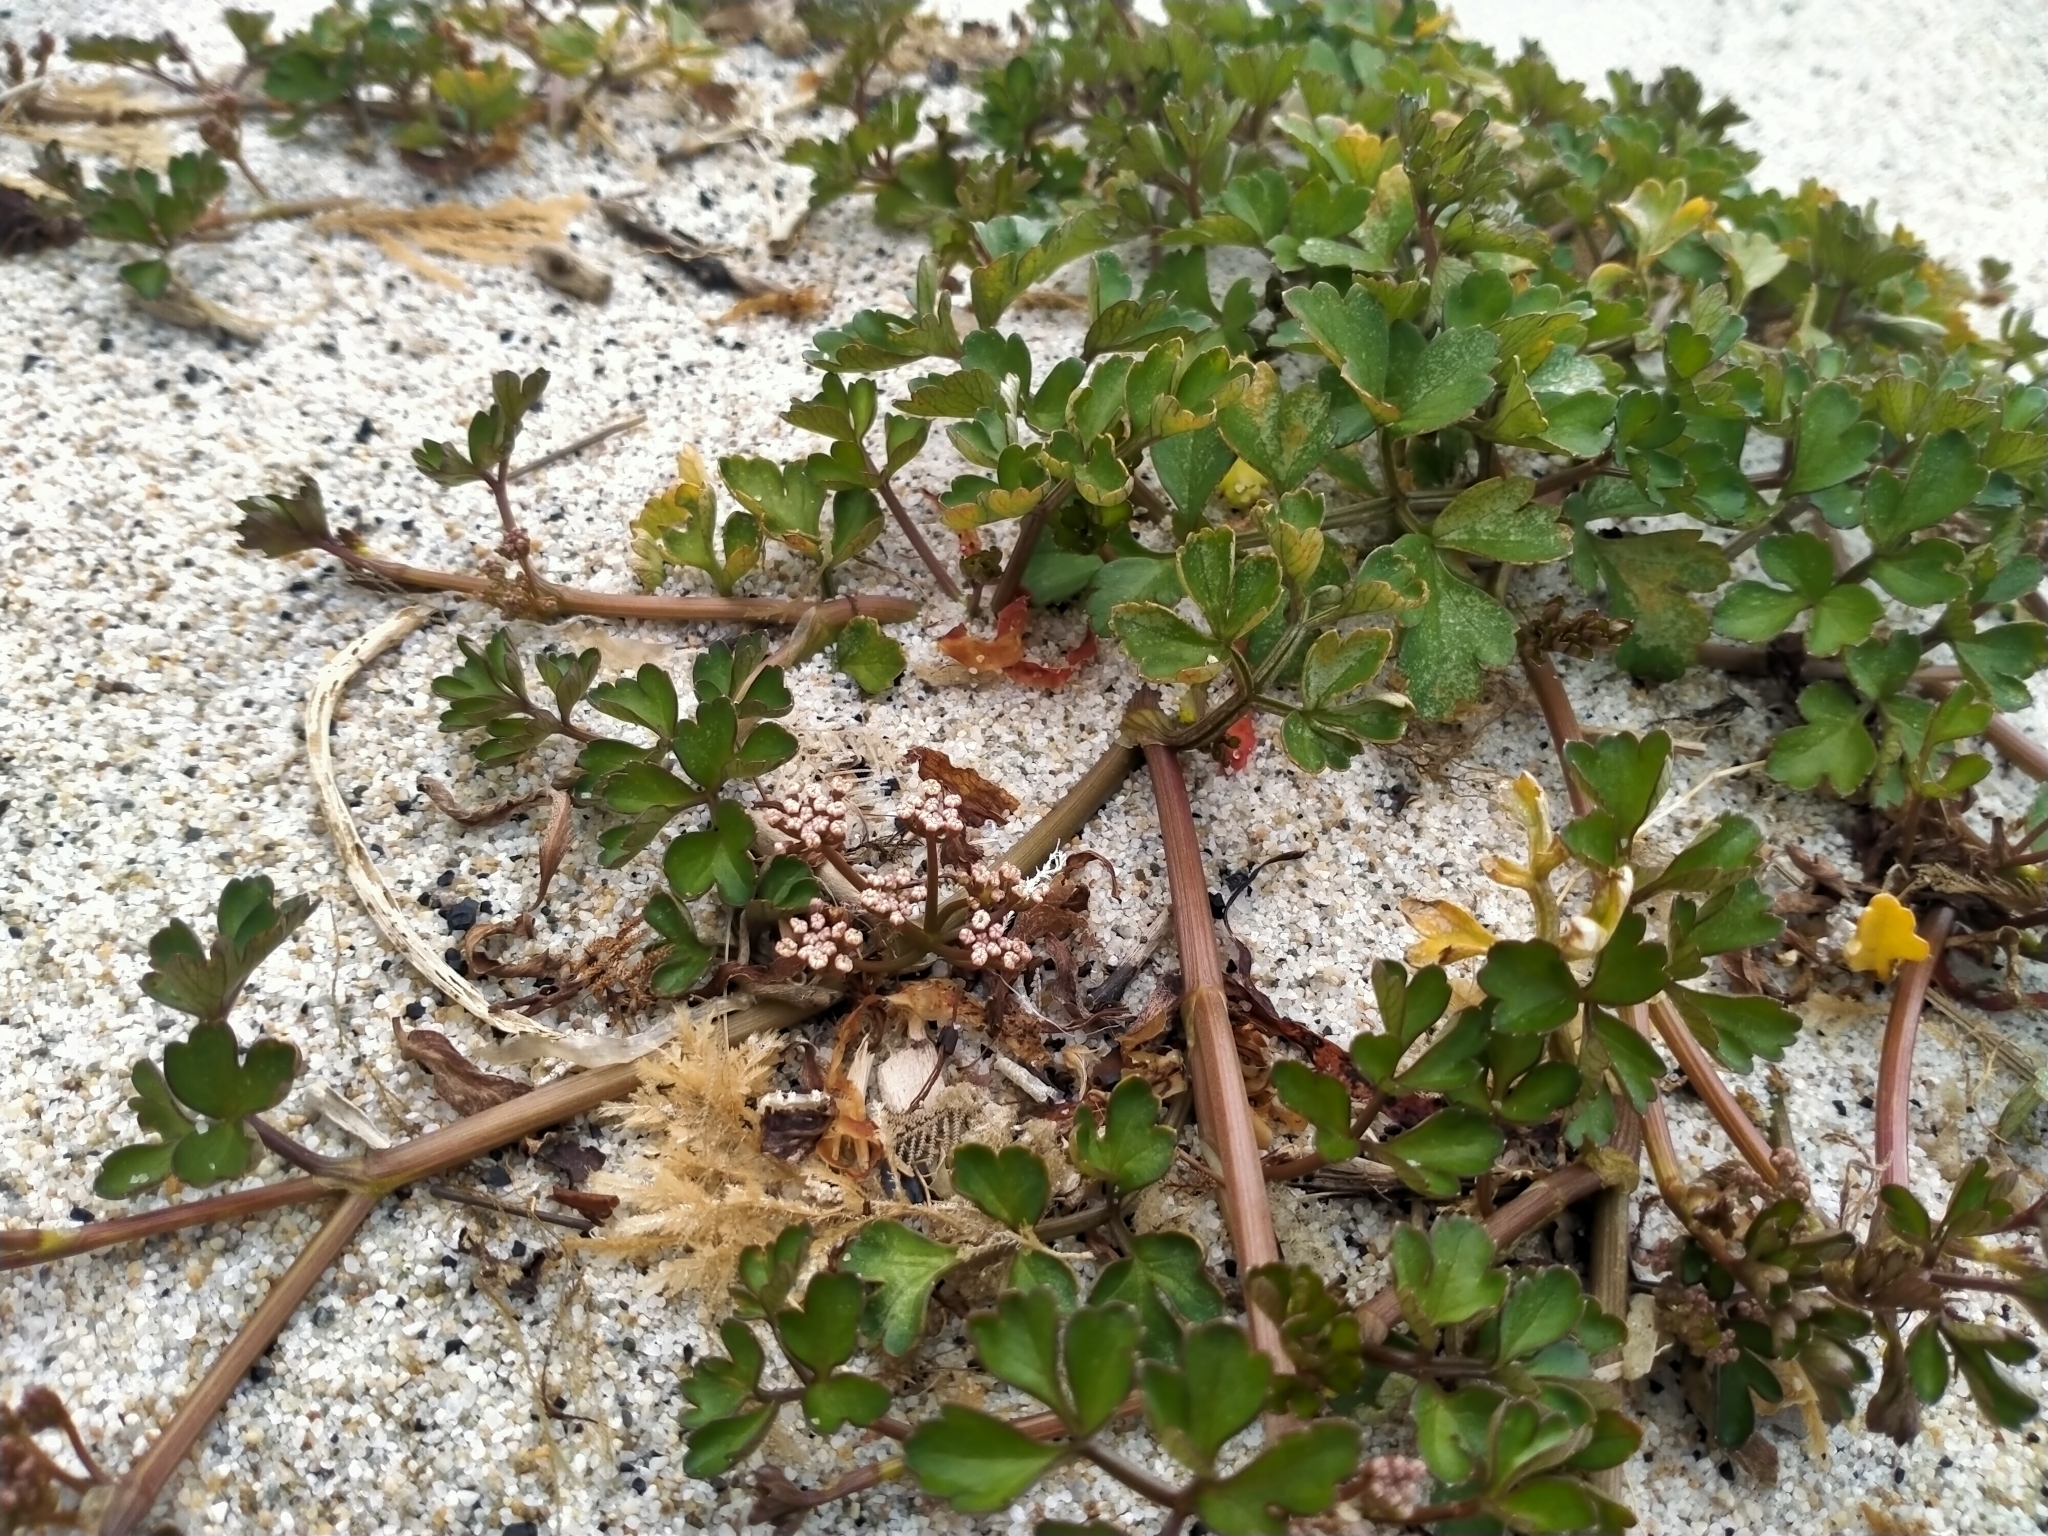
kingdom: Plantae
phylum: Tracheophyta
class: Magnoliopsida
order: Apiales
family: Apiaceae
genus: Apium
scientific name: Apium prostratum
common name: Prostrate marshwort
